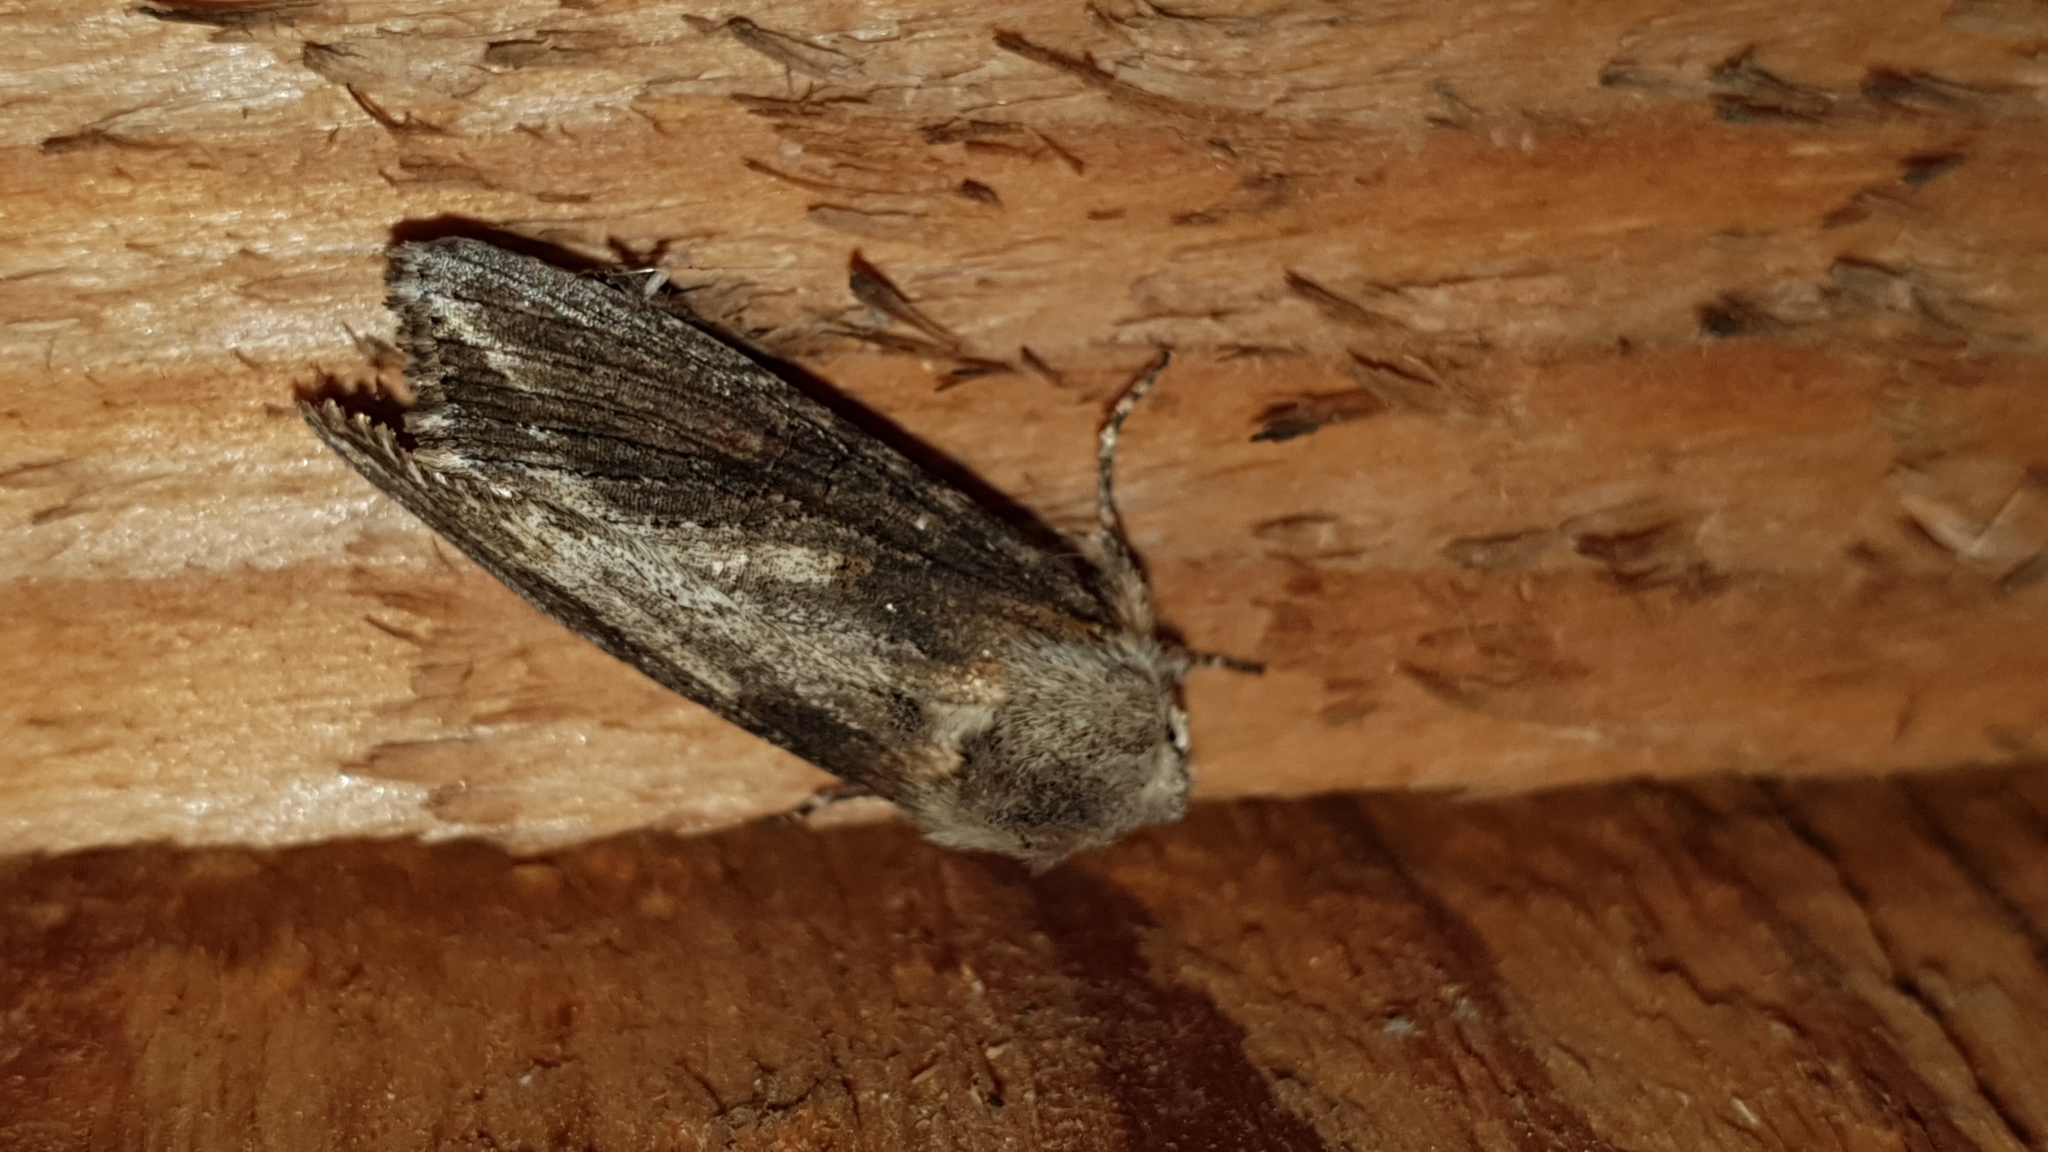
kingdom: Animalia
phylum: Arthropoda
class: Insecta
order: Lepidoptera
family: Noctuidae
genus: Egira
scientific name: Egira conspicillaris
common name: Silver cloud
